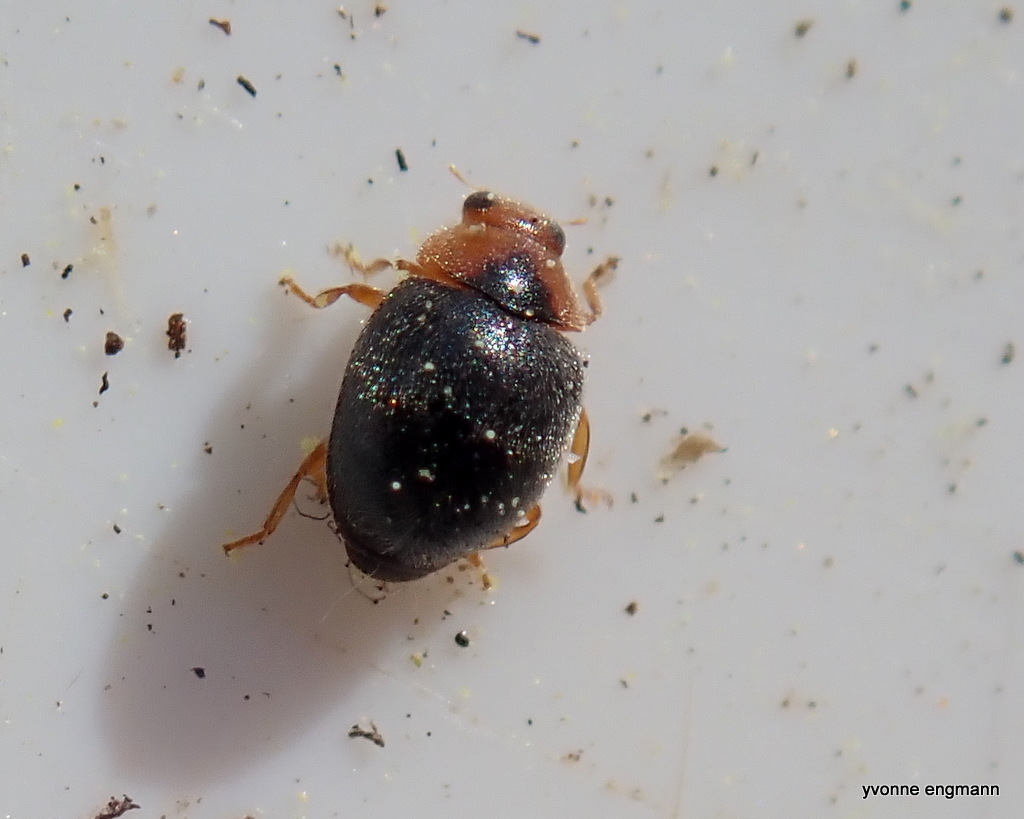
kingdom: Animalia
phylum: Arthropoda
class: Insecta
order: Coleoptera
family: Coccinellidae
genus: Scymnus
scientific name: Scymnus rubromaculatus
